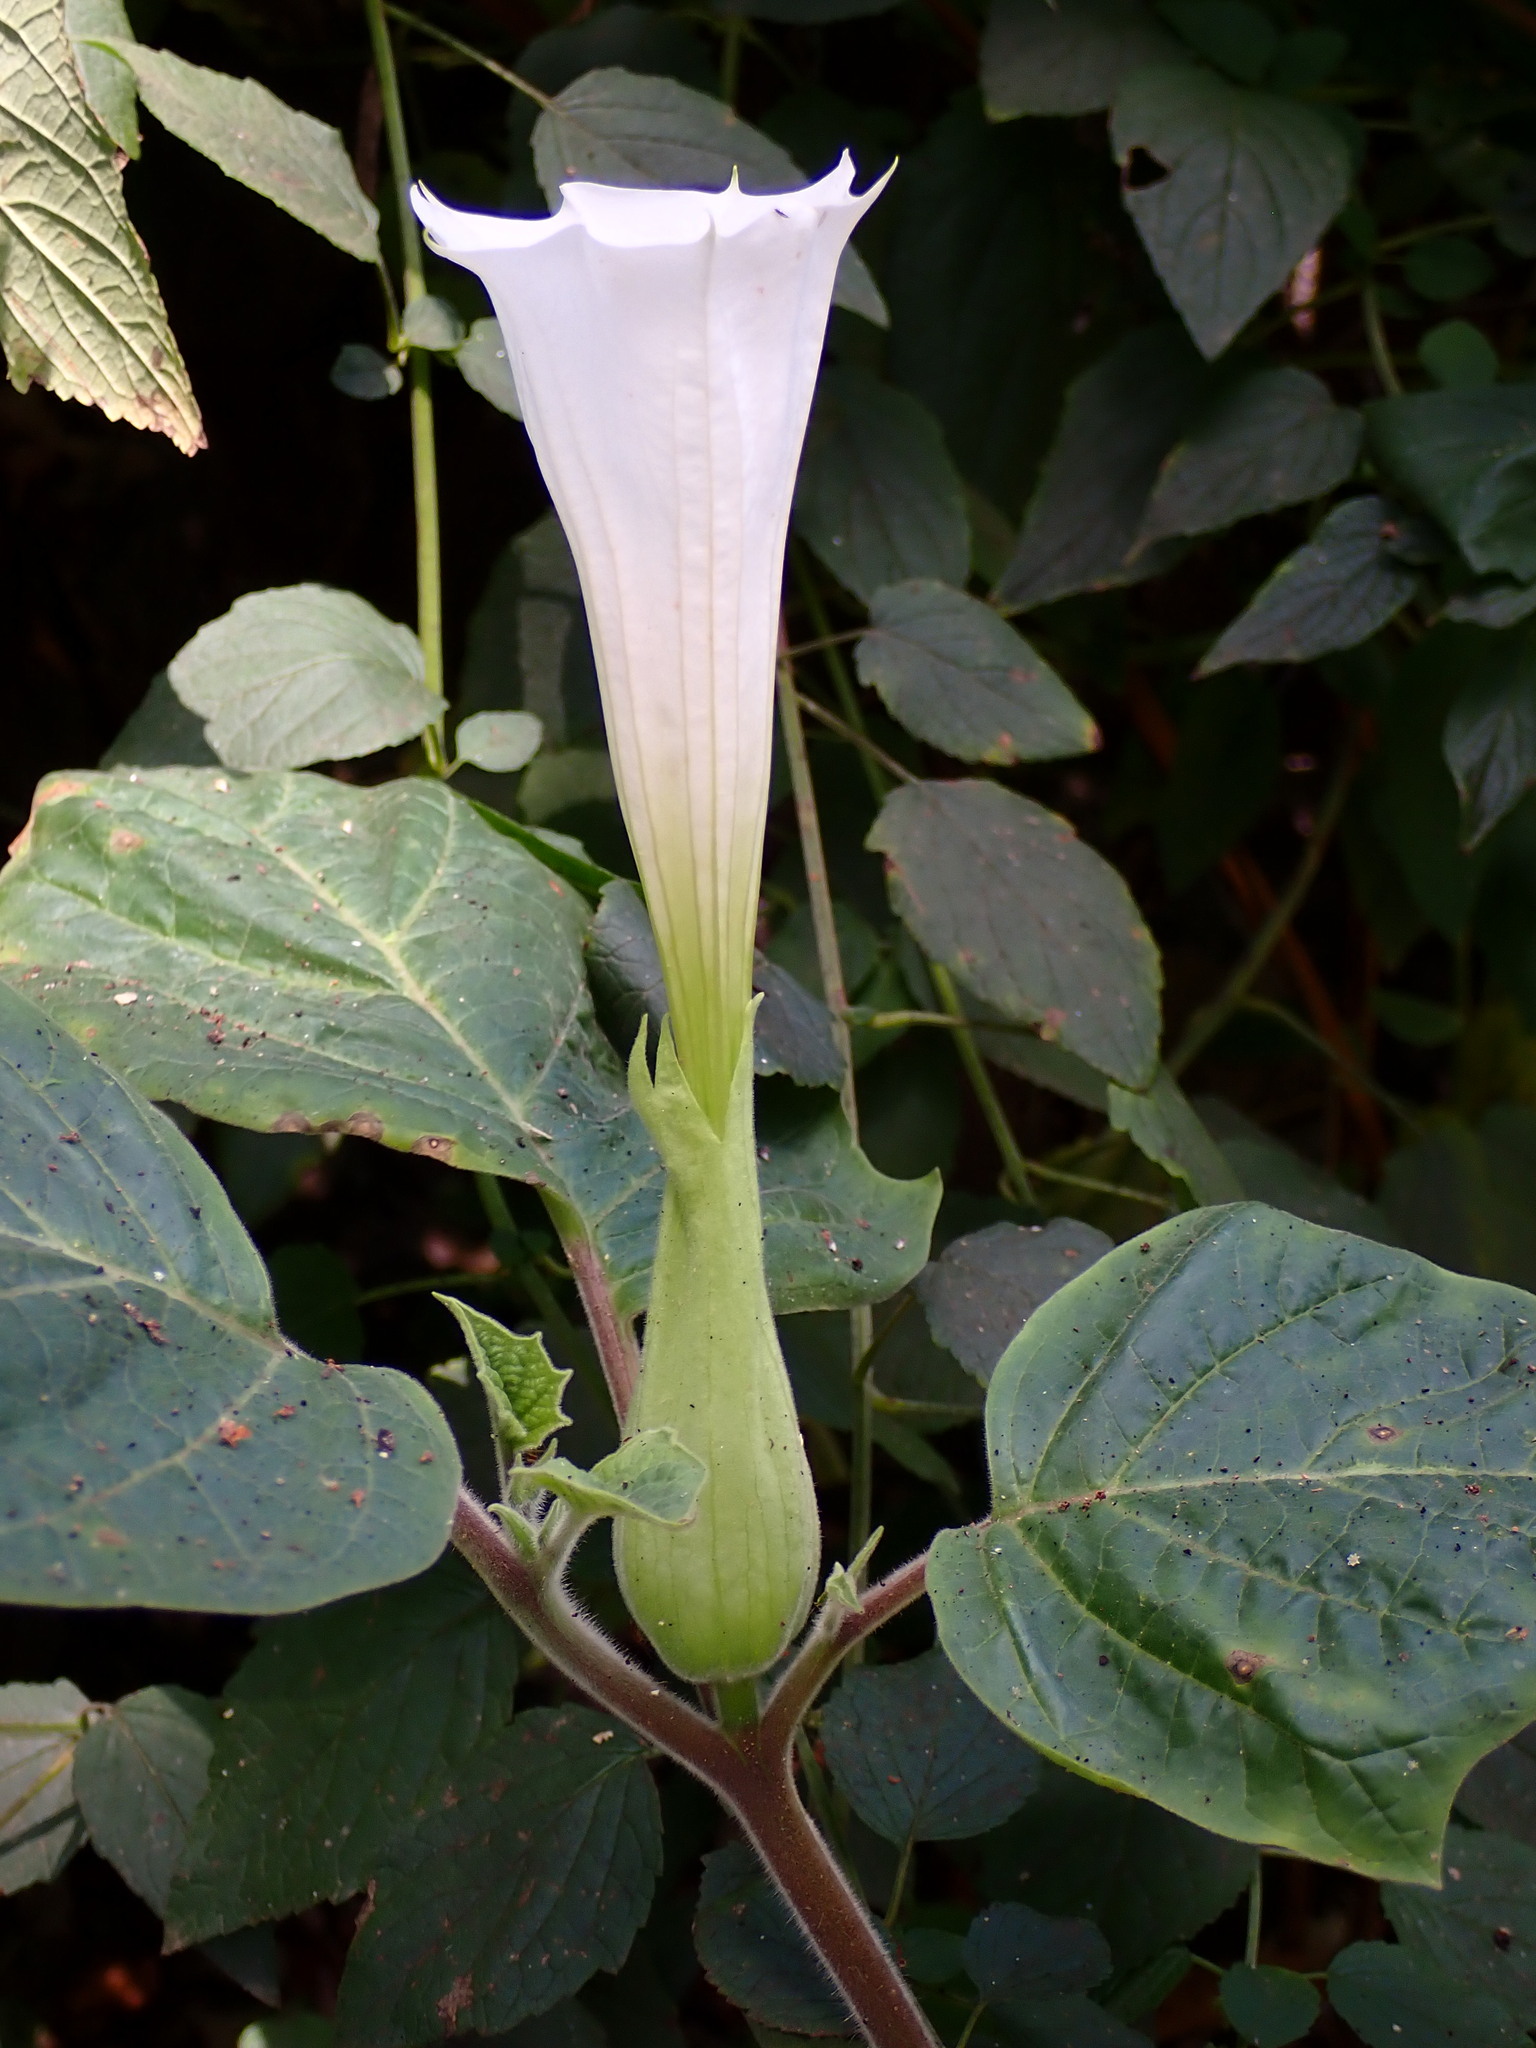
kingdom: Plantae
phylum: Tracheophyta
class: Magnoliopsida
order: Solanales
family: Solanaceae
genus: Datura
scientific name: Datura innoxia
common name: Downy thorn-apple
